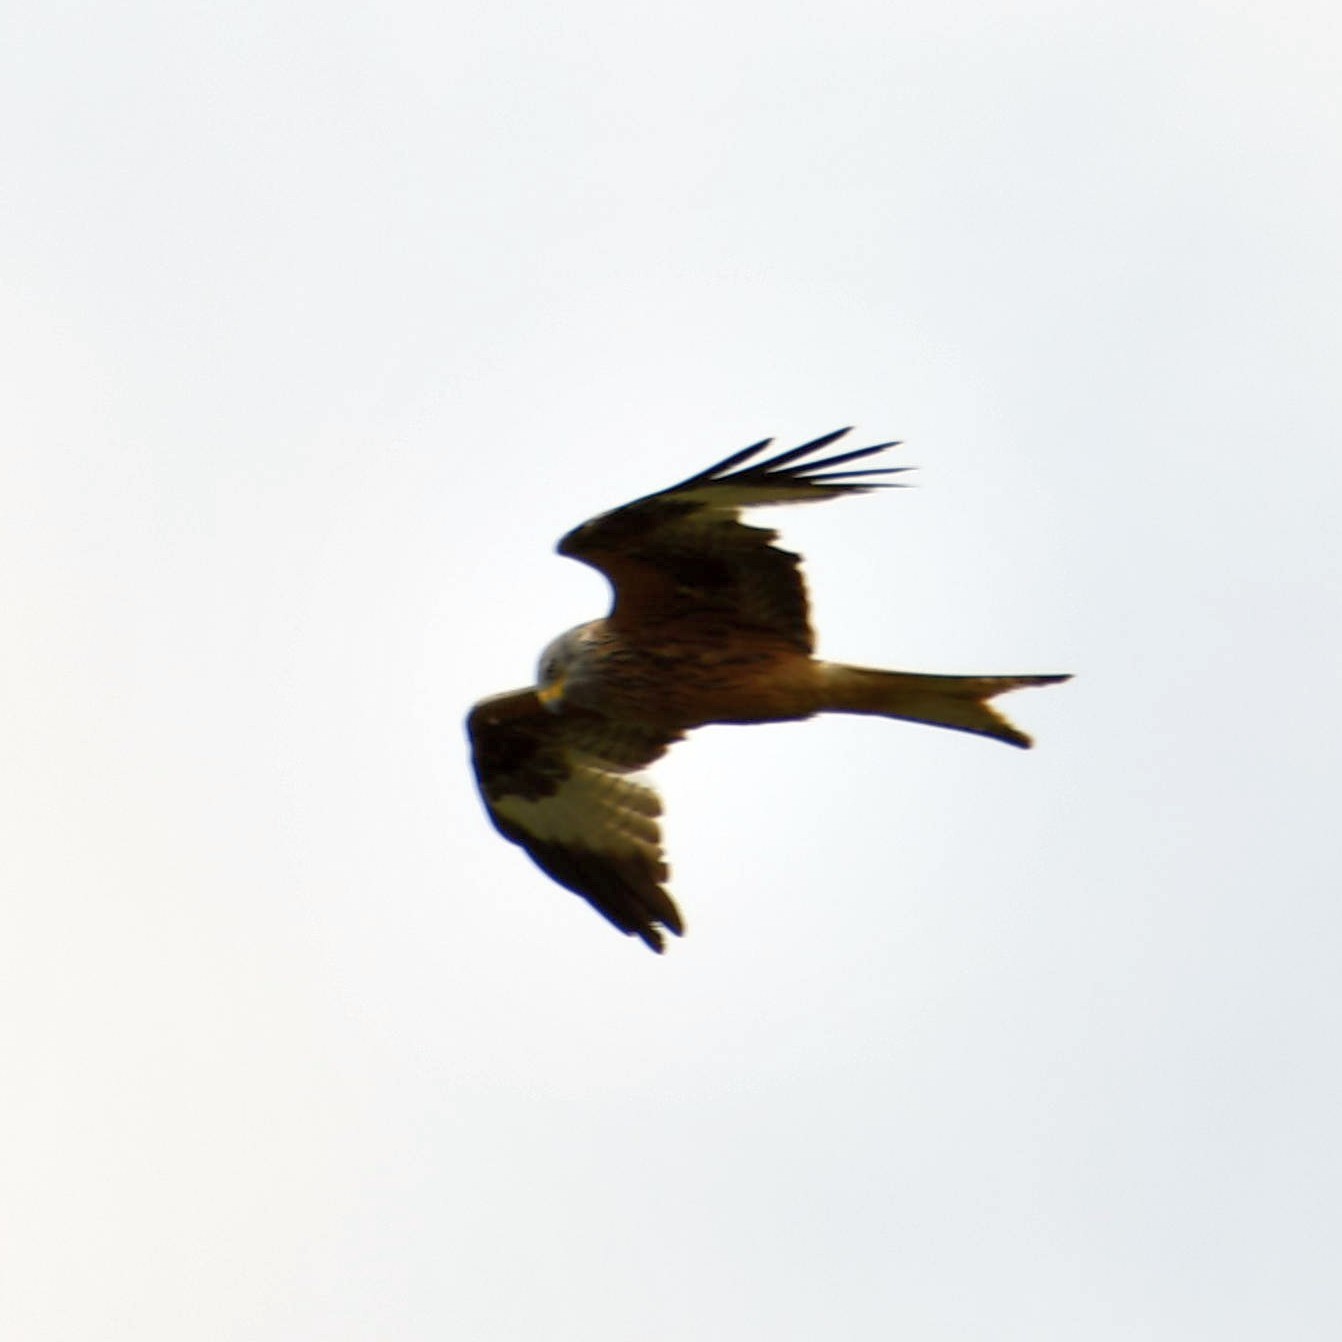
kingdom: Animalia
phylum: Chordata
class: Aves
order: Accipitriformes
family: Accipitridae
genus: Milvus
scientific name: Milvus milvus
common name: Red kite
